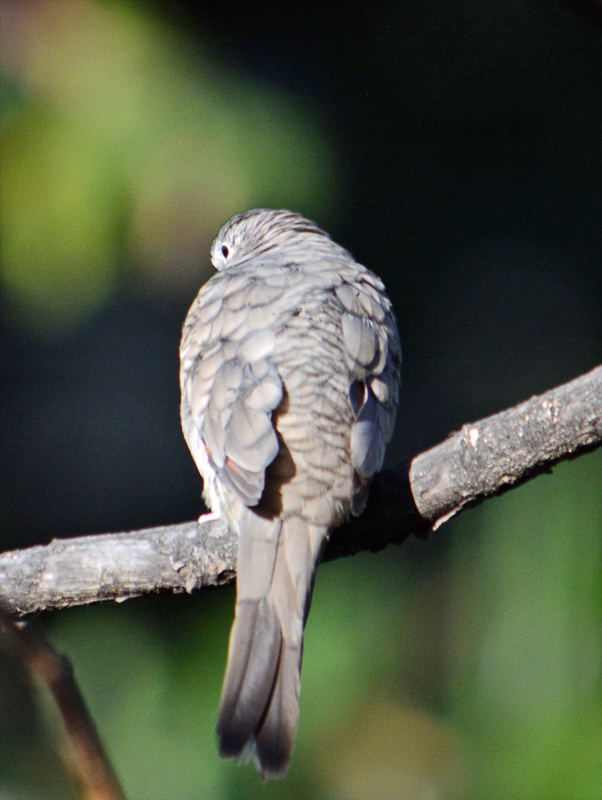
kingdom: Animalia
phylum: Chordata
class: Aves
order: Columbiformes
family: Columbidae
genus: Columbina
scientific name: Columbina inca
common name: Inca dove
